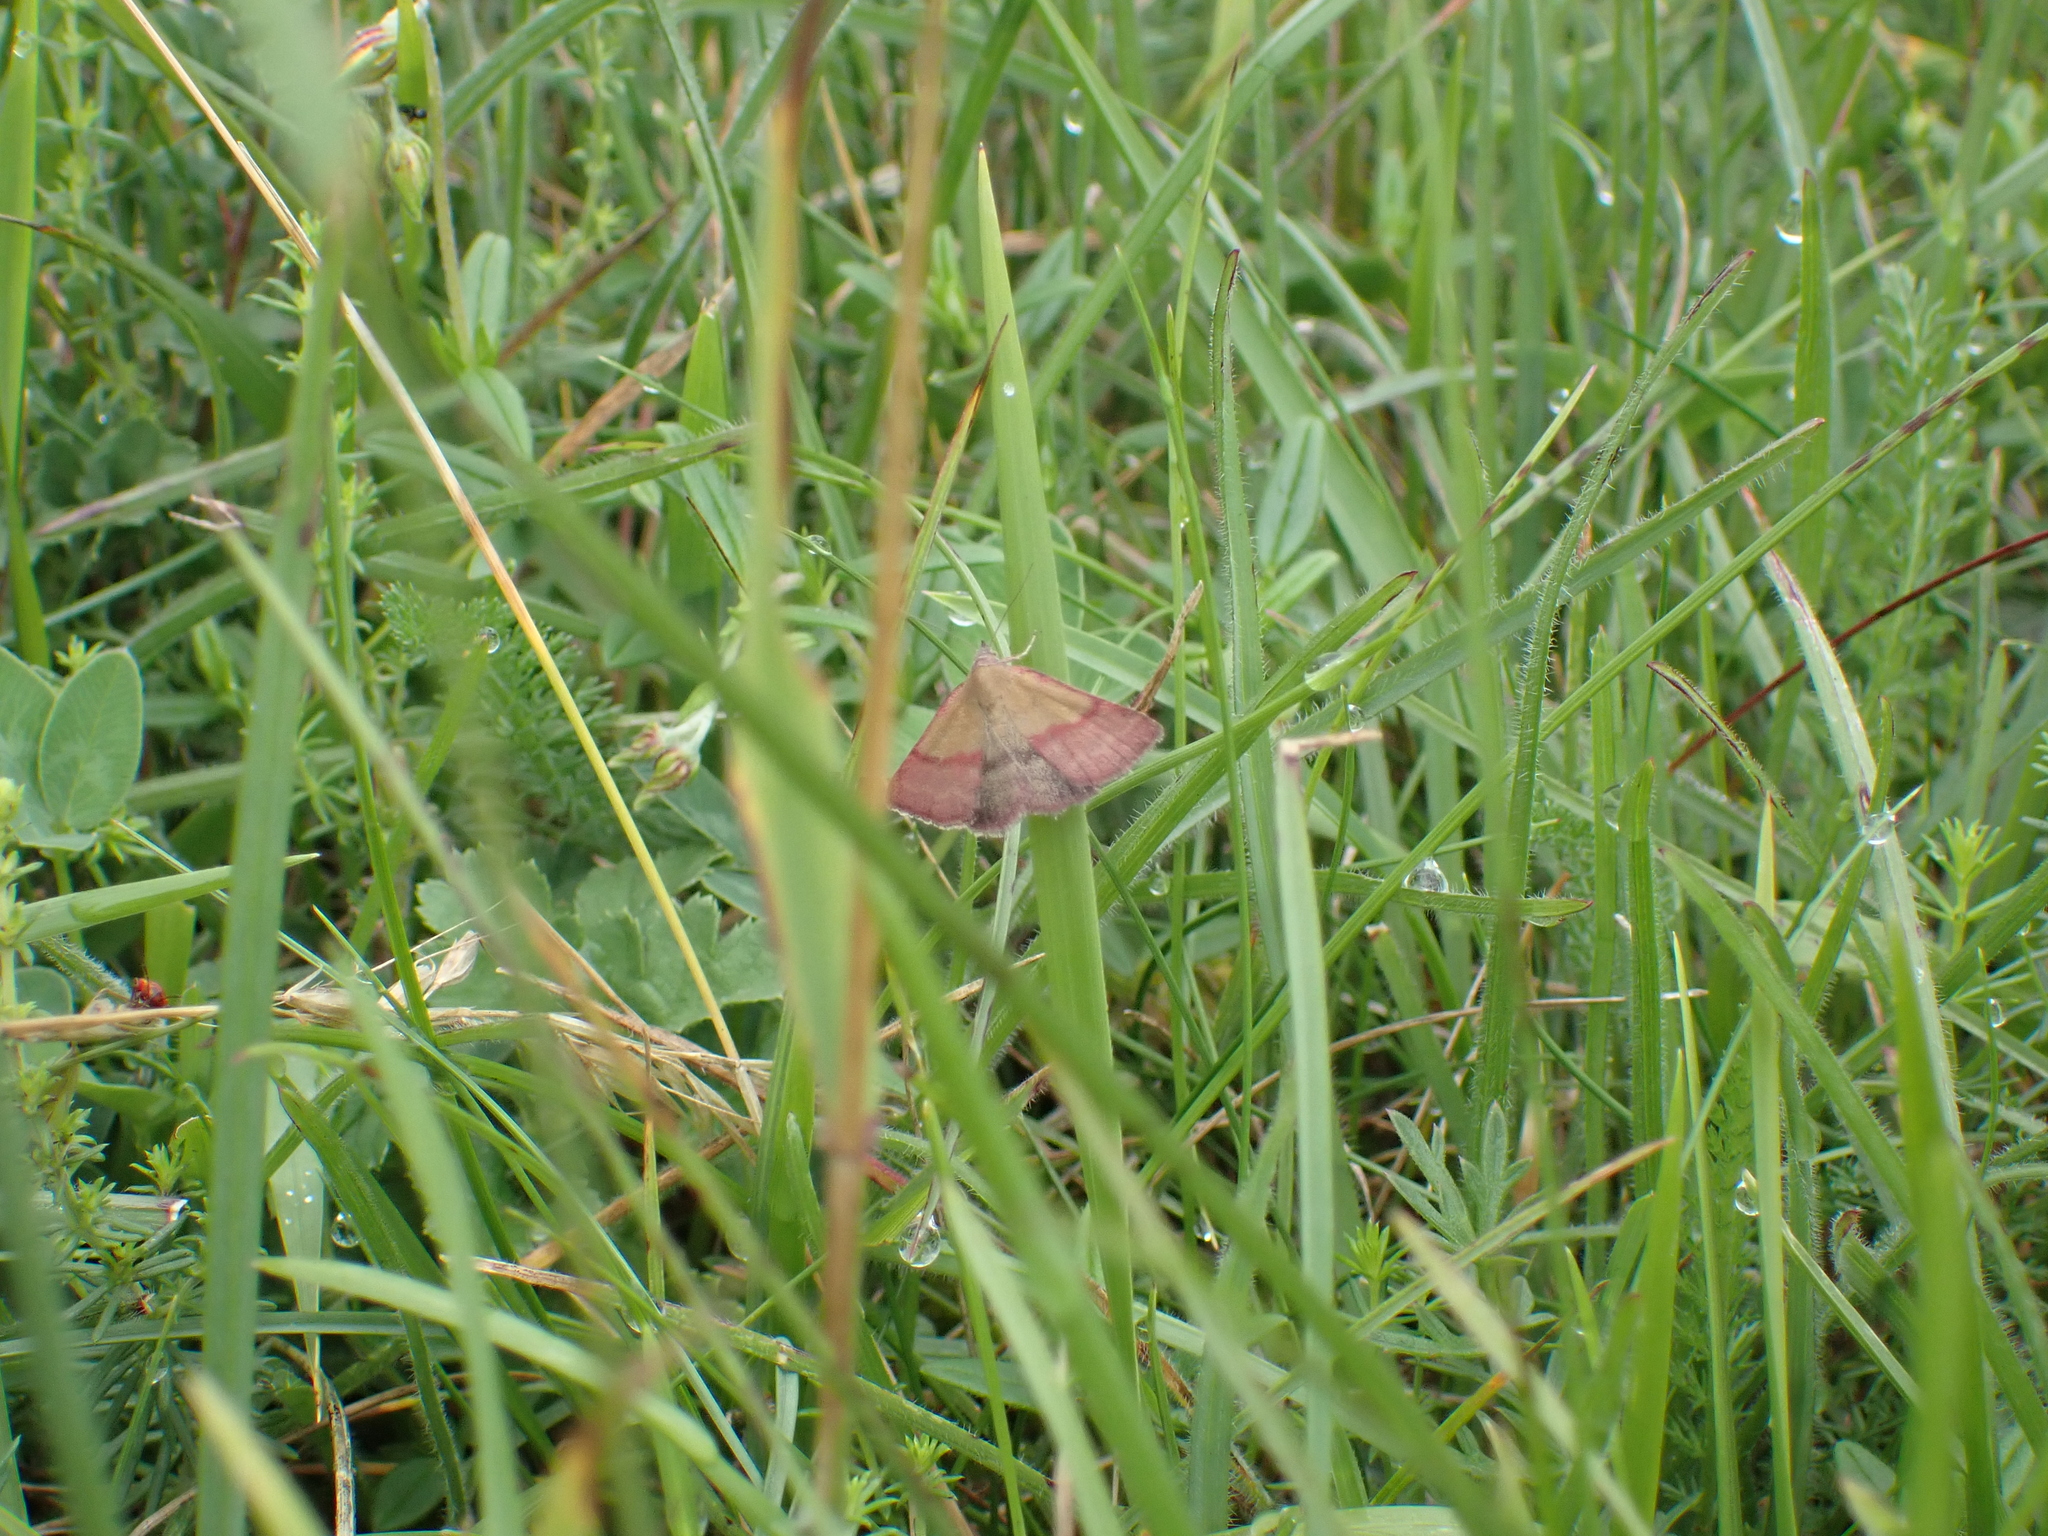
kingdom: Animalia
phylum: Arthropoda
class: Insecta
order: Lepidoptera
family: Erebidae
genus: Phytometra
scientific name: Phytometra viridaria
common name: Small purple-barred
